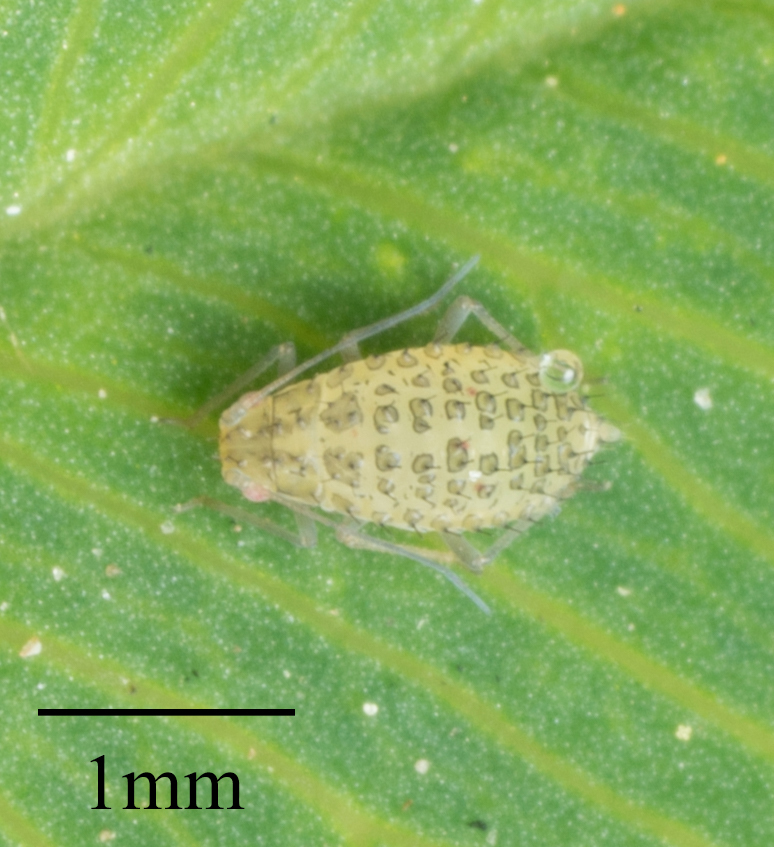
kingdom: Animalia
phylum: Arthropoda
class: Insecta
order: Hemiptera
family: Aphididae
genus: Therioaphis
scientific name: Therioaphis trifolii
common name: Spotted alfalfa aphid
